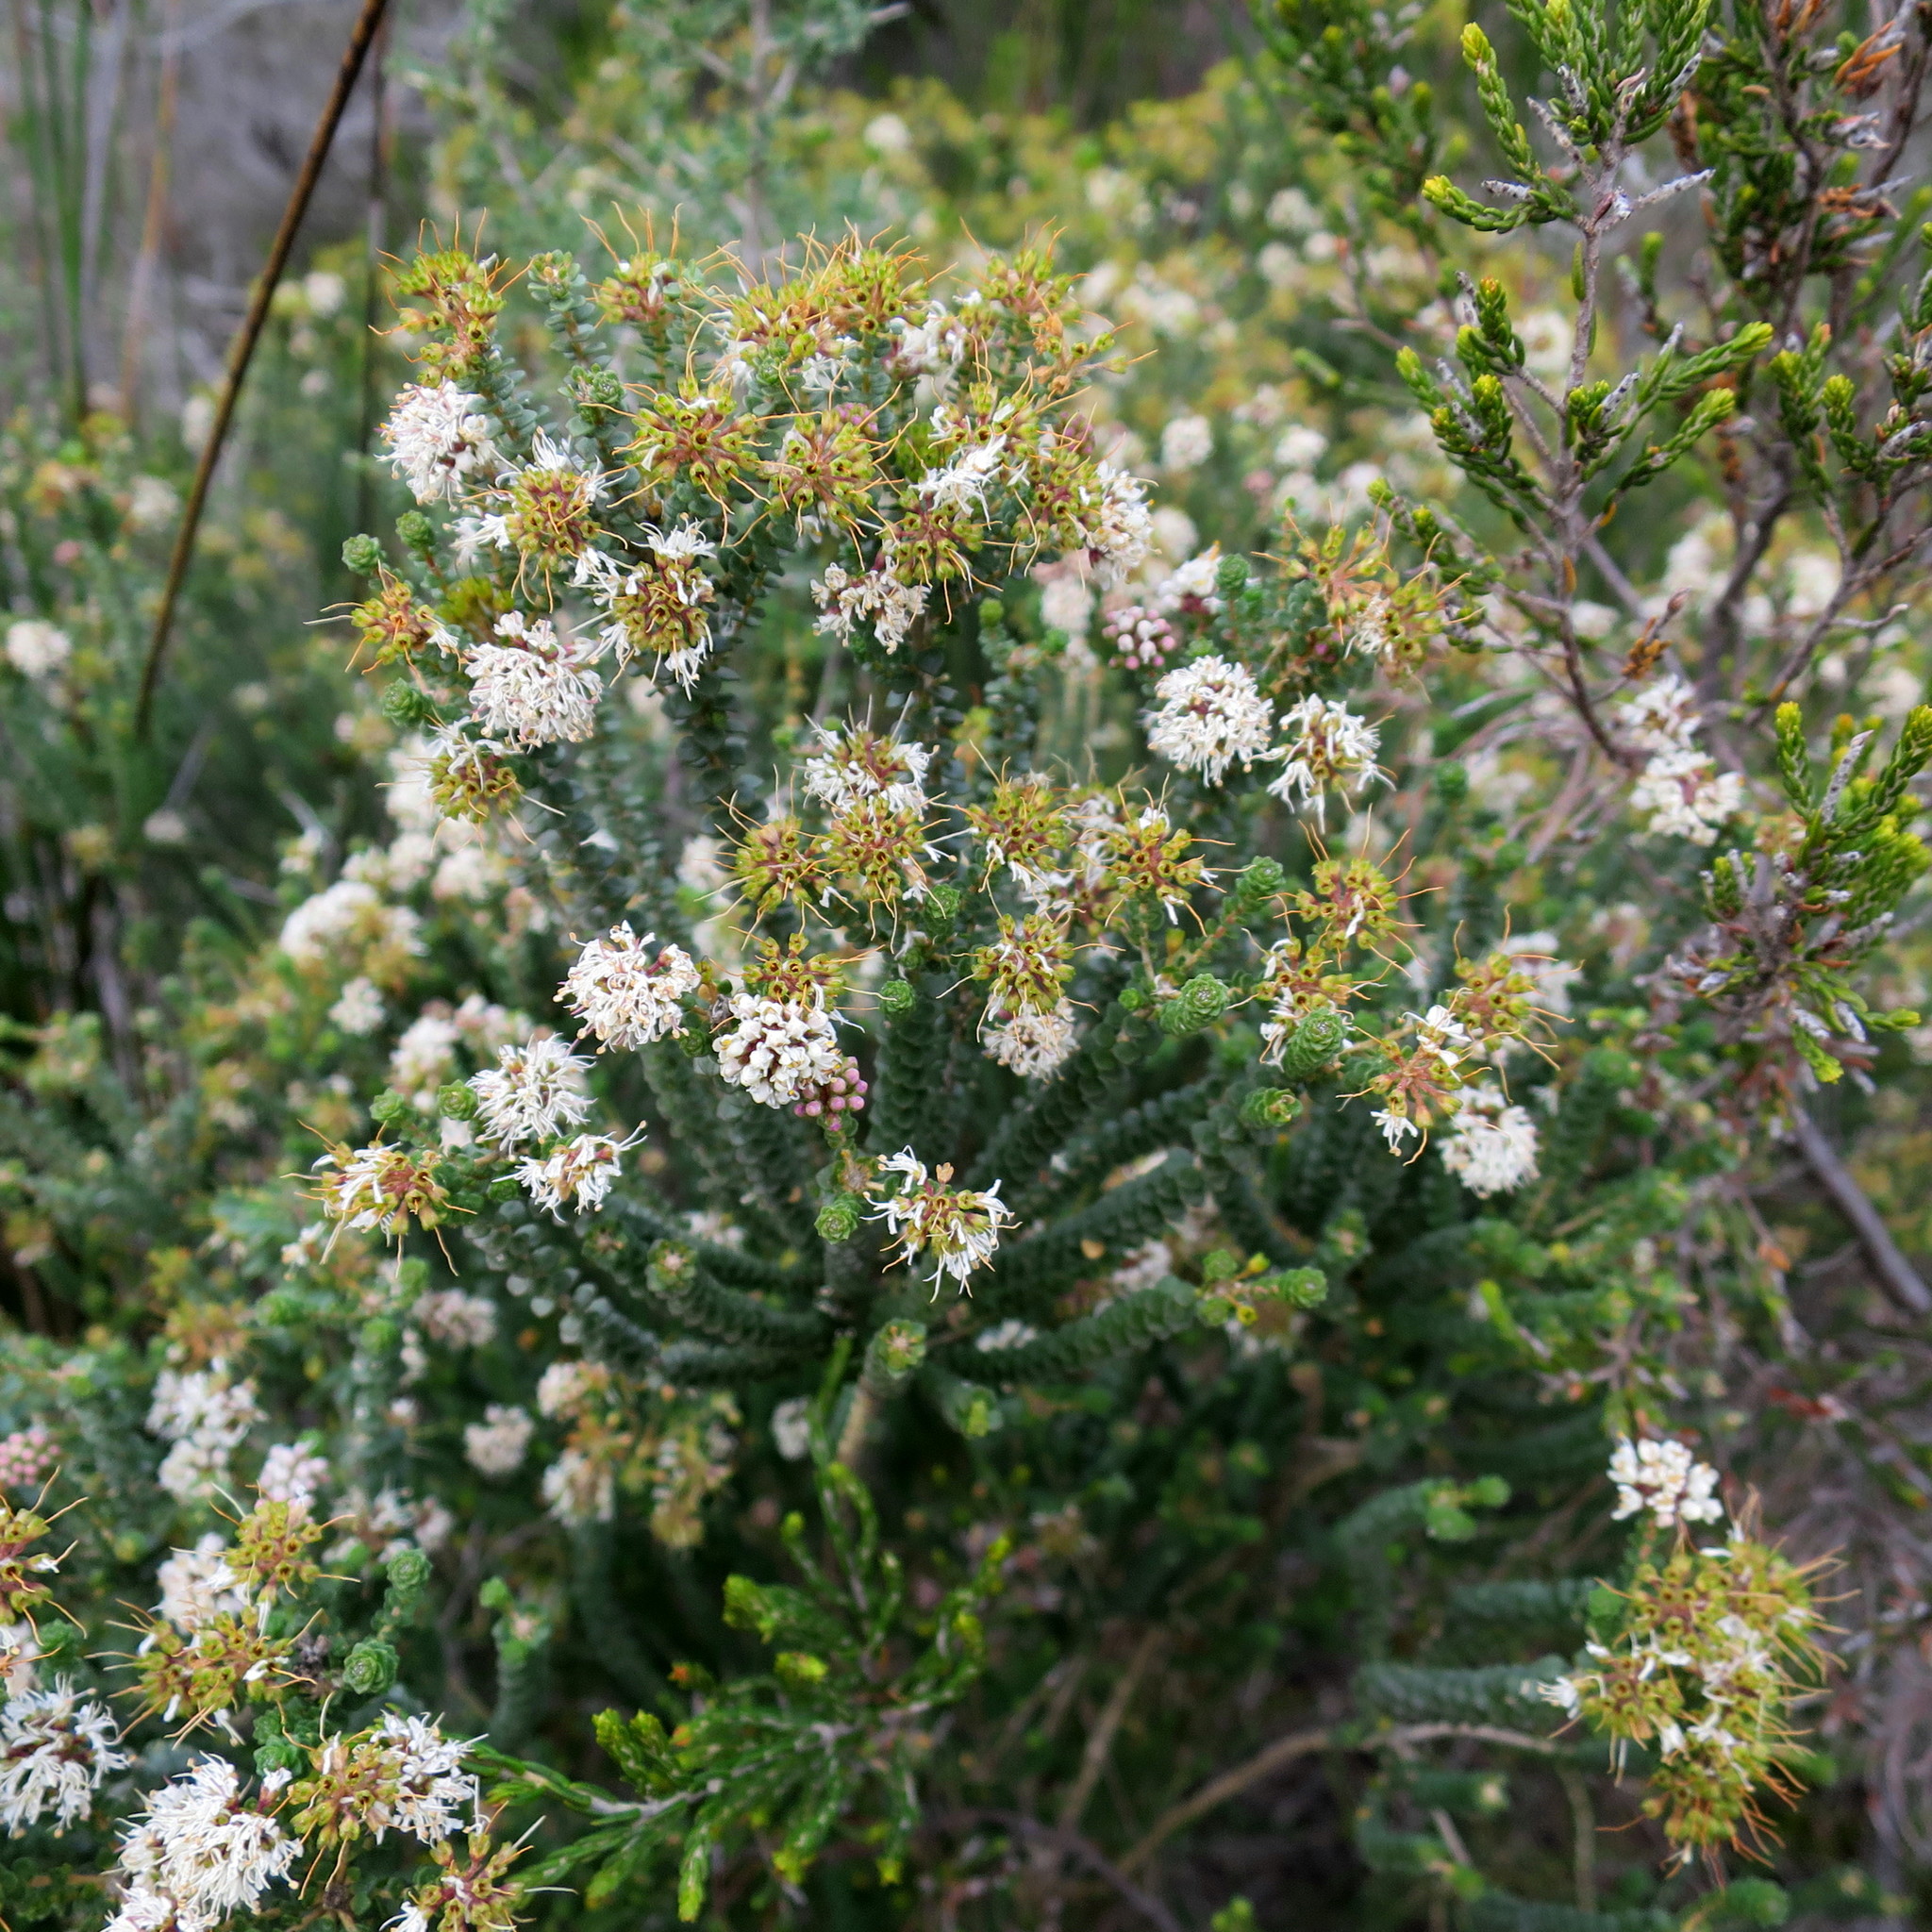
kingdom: Plantae
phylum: Tracheophyta
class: Magnoliopsida
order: Sapindales
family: Rutaceae
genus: Agathosma
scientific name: Agathosma muirii
